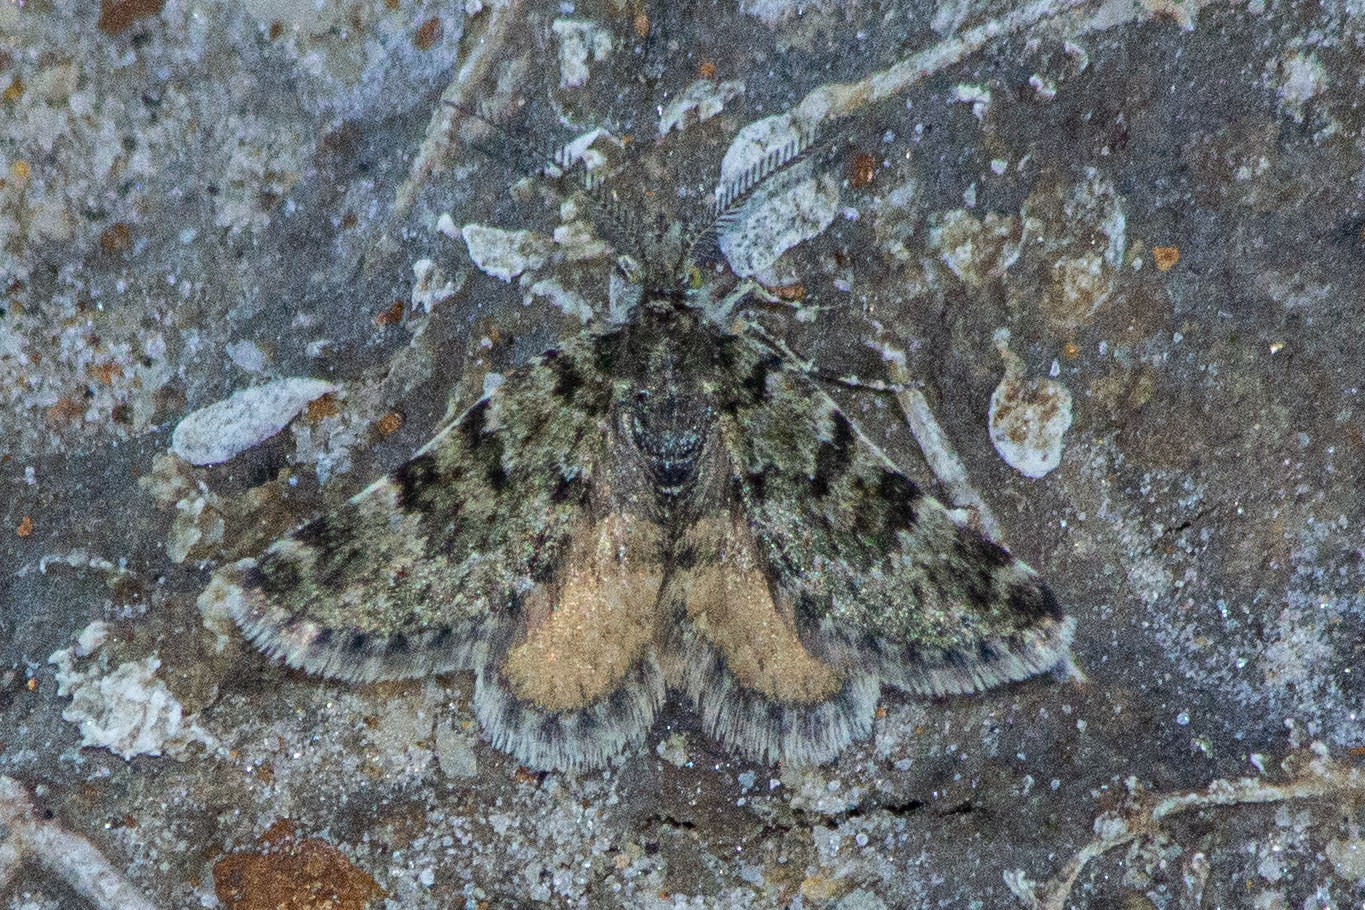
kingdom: Animalia
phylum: Arthropoda
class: Insecta
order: Lepidoptera
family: Geometridae
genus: Paranotoreas
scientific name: Paranotoreas fulva
